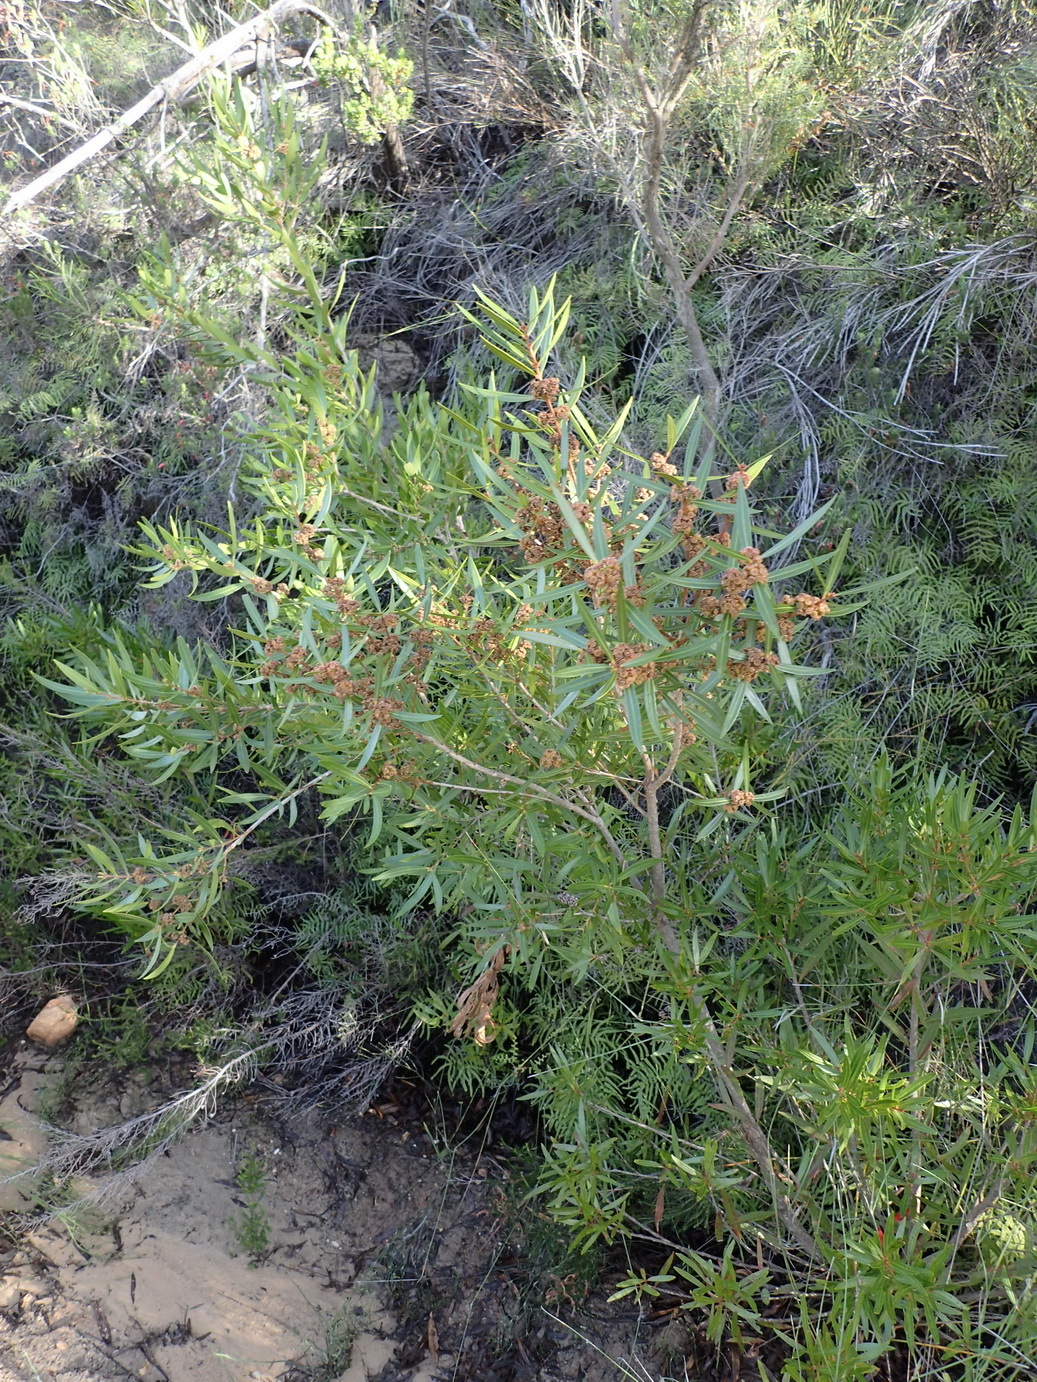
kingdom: Plantae
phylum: Tracheophyta
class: Magnoliopsida
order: Myrtales
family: Myrtaceae
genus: Callistemon
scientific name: Callistemon lanceolatus
